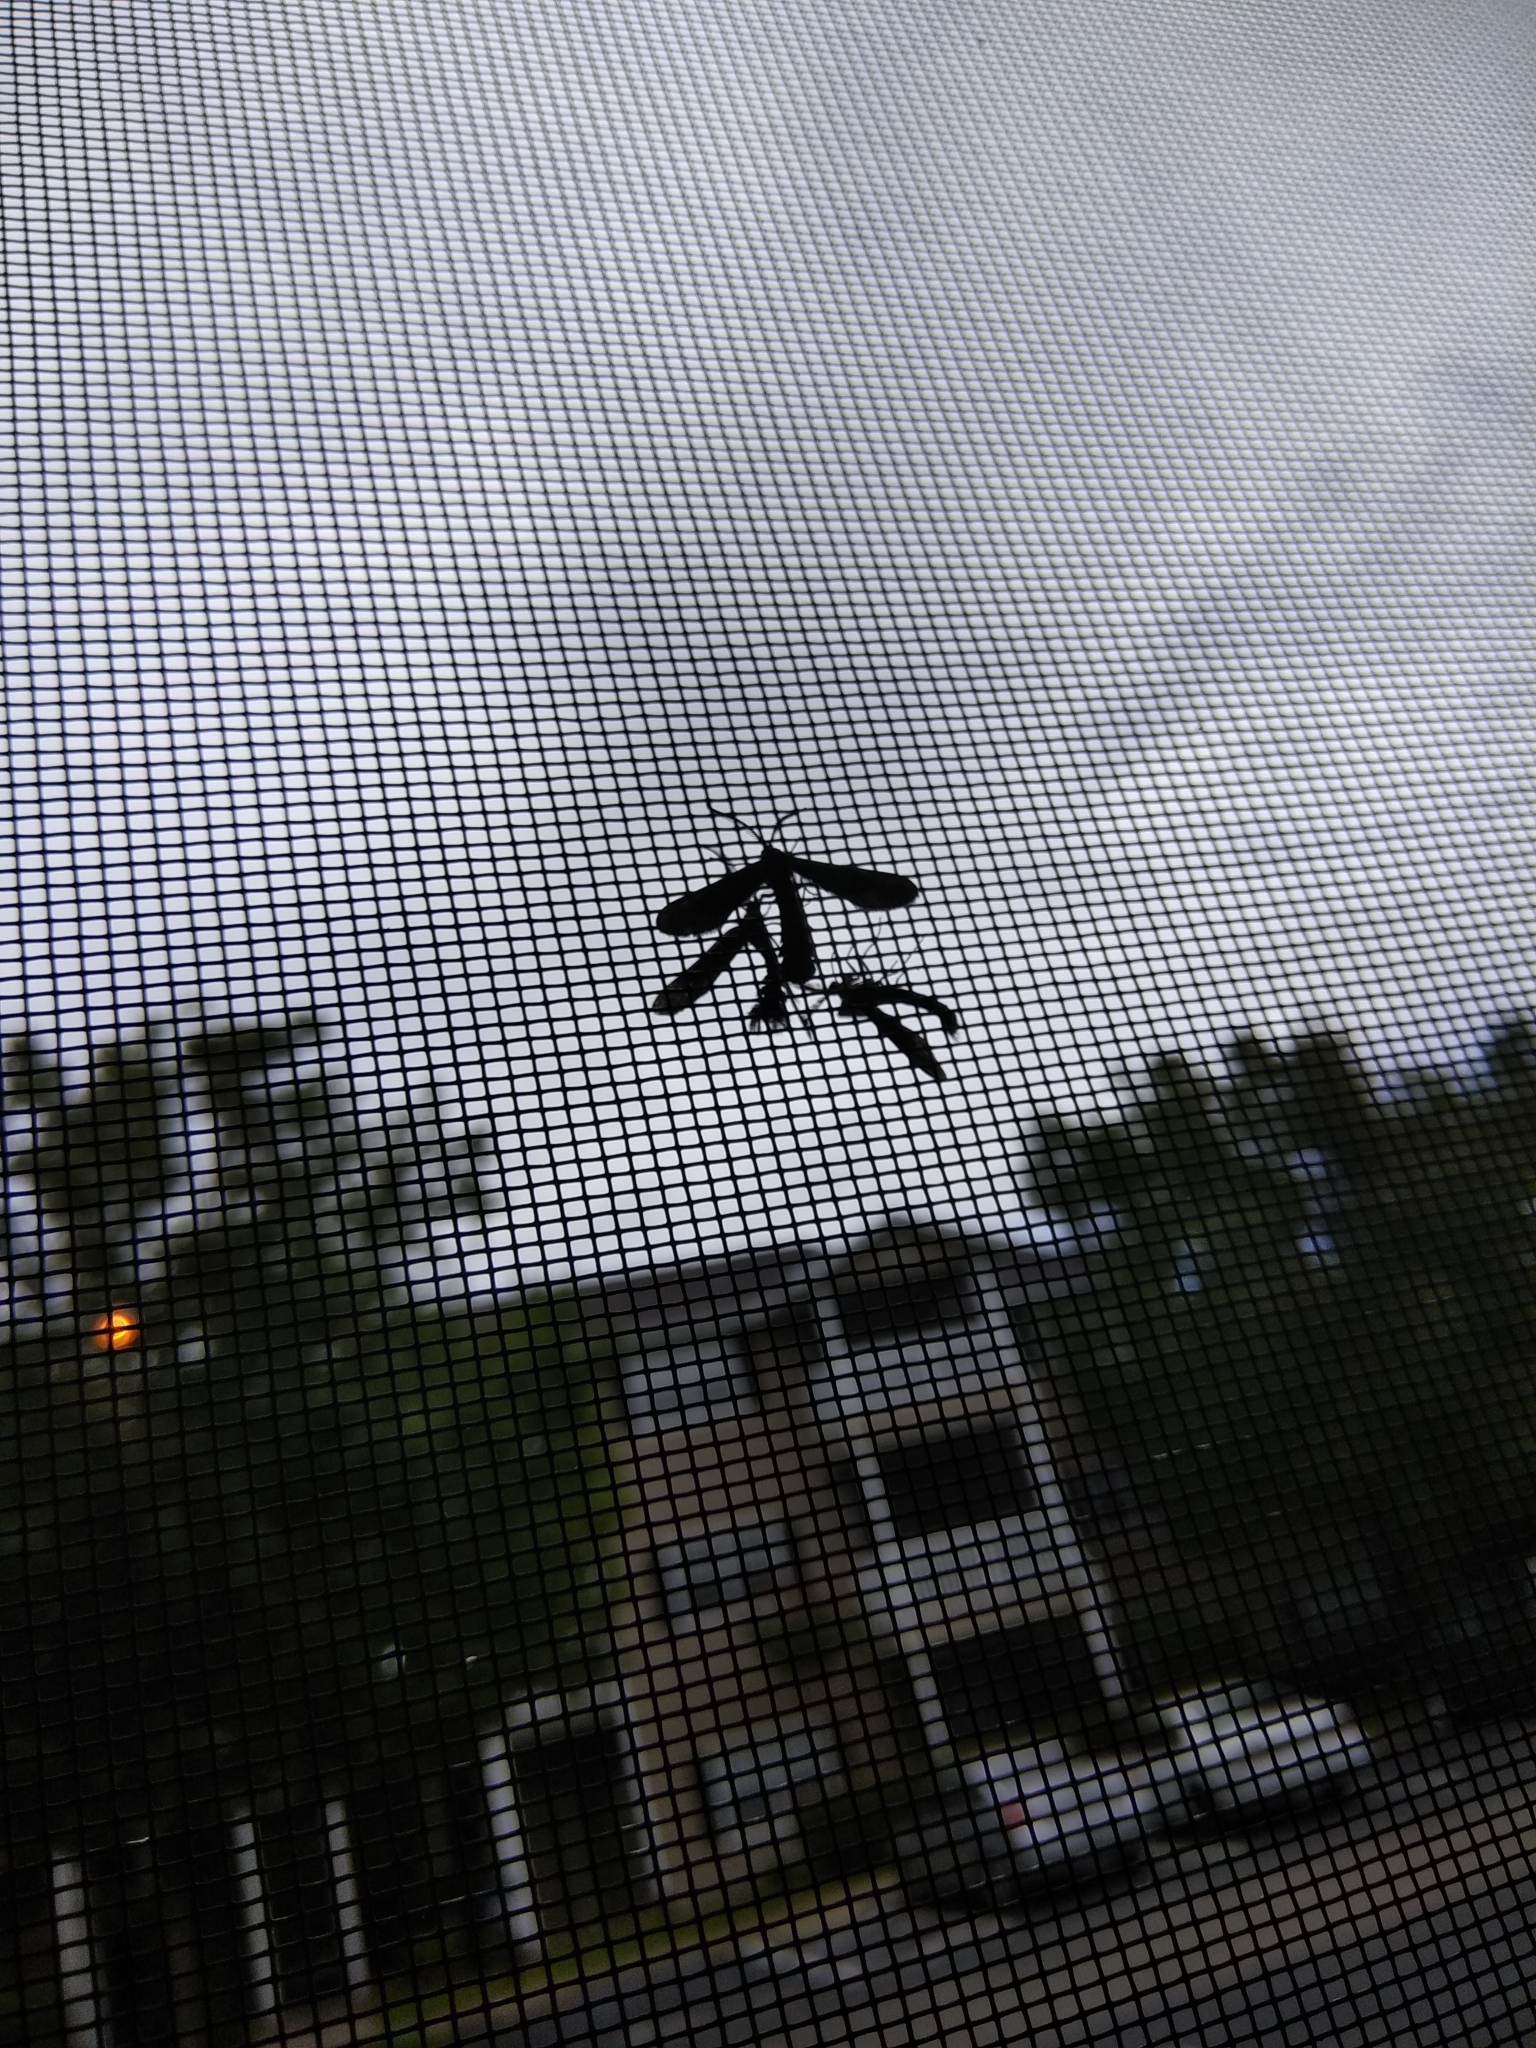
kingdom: Animalia
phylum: Arthropoda
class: Insecta
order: Lepidoptera
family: Zygaenidae
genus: Harrisina
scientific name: Harrisina americana
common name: Grapeleaf skeletonizer moth
